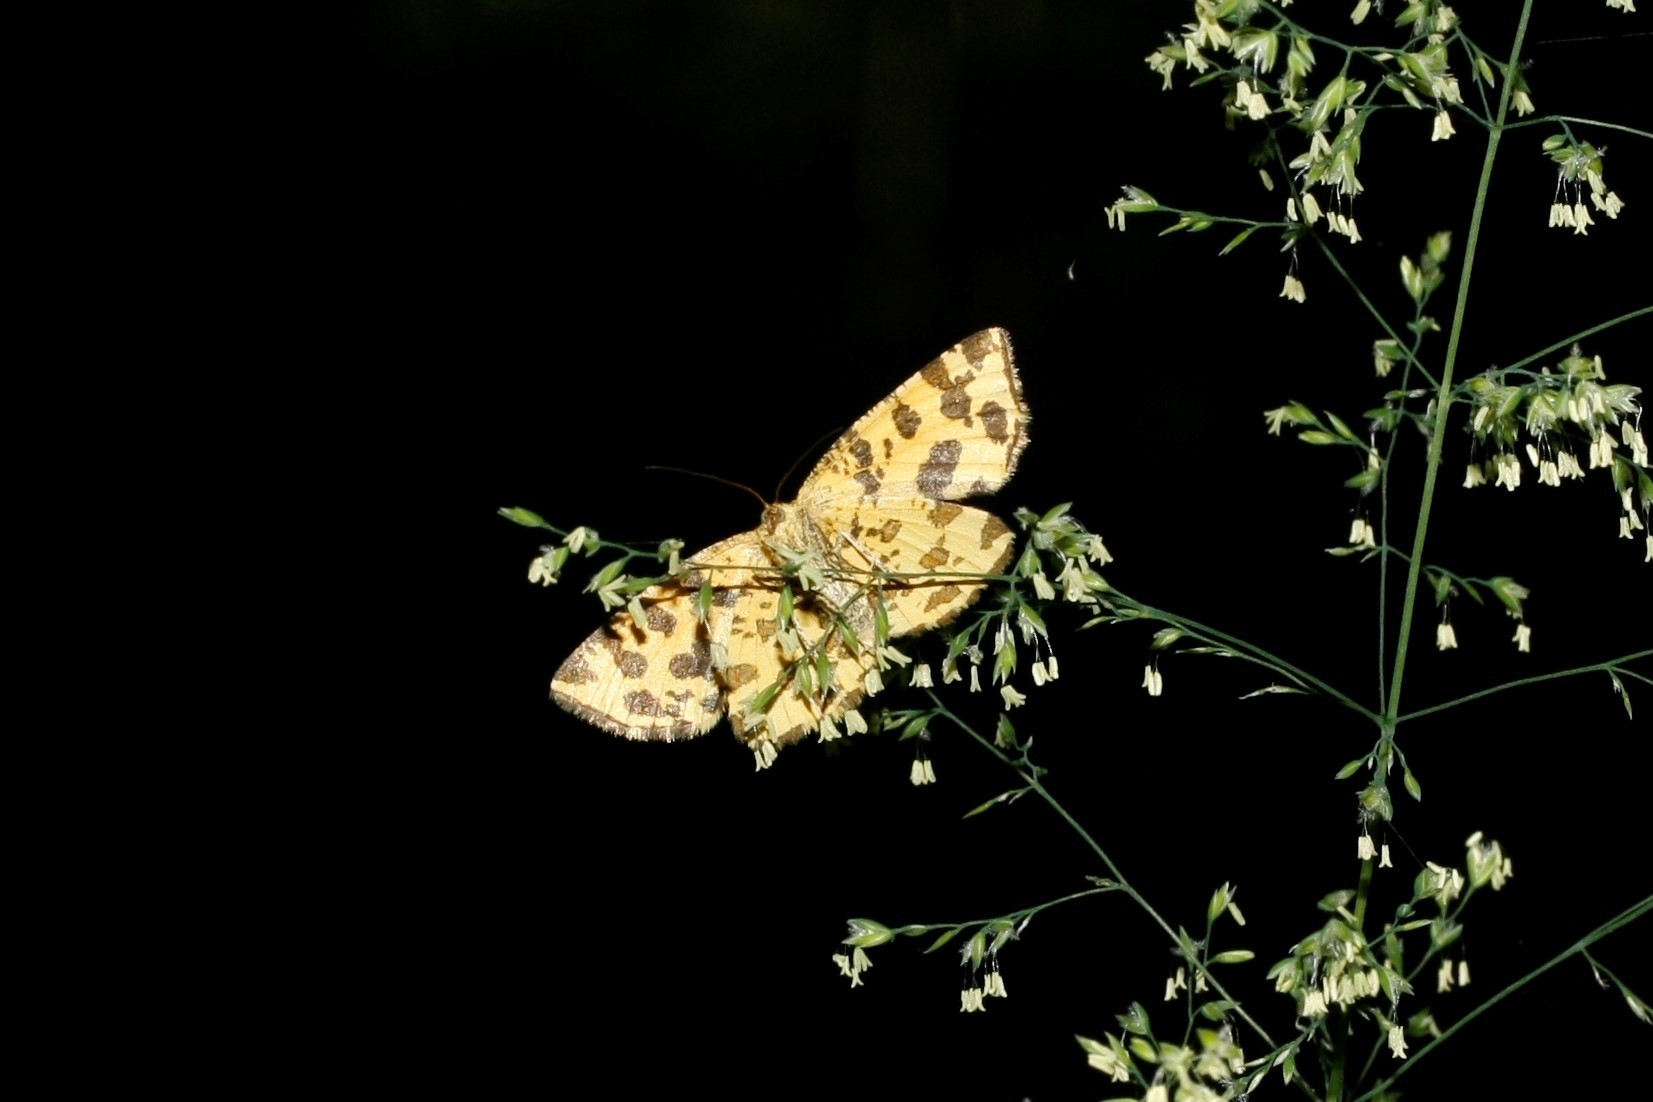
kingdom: Animalia
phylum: Arthropoda
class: Insecta
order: Lepidoptera
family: Geometridae
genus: Pseudopanthera
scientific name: Pseudopanthera macularia
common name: Speckled yellow
